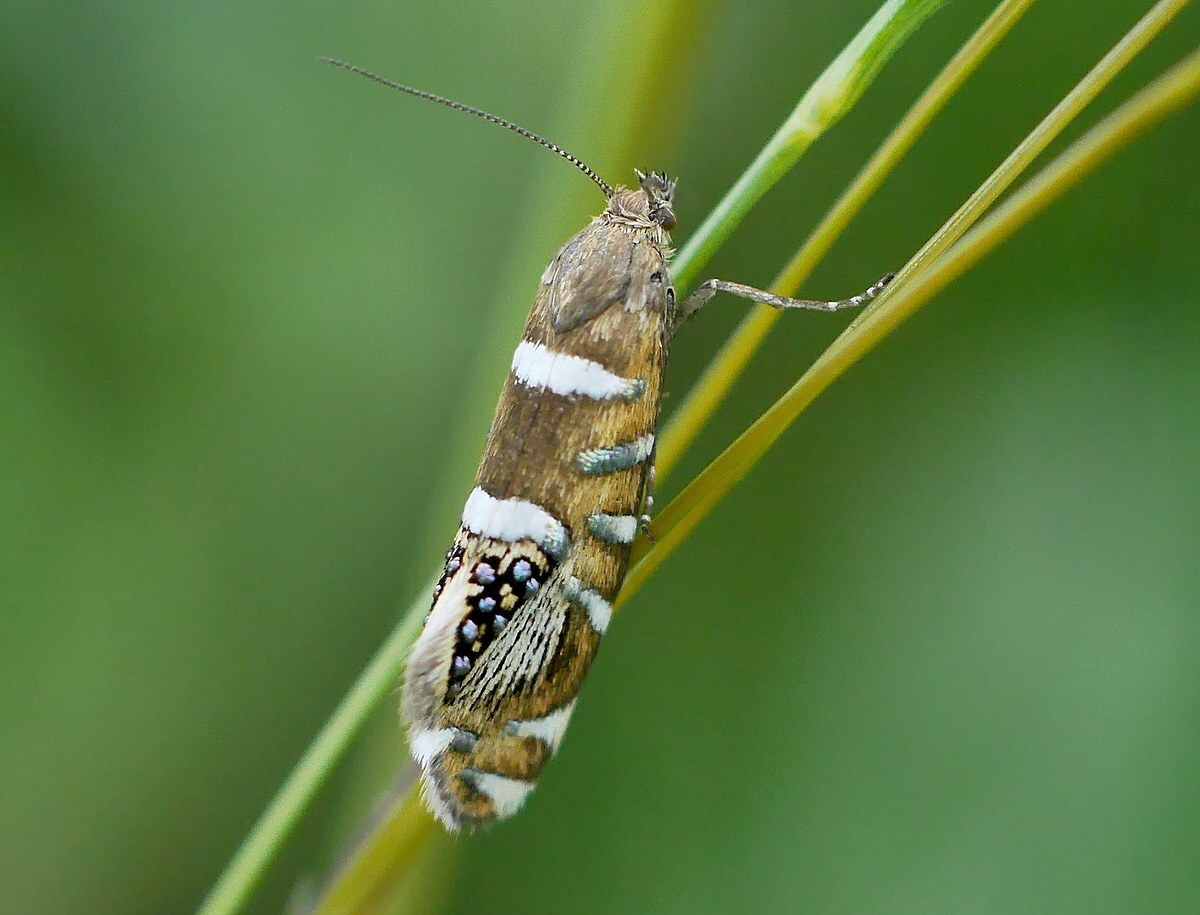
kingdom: Animalia
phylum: Arthropoda
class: Insecta
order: Lepidoptera
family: Glyphipterigidae
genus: Glyphipterix
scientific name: Glyphipterix loricatella
